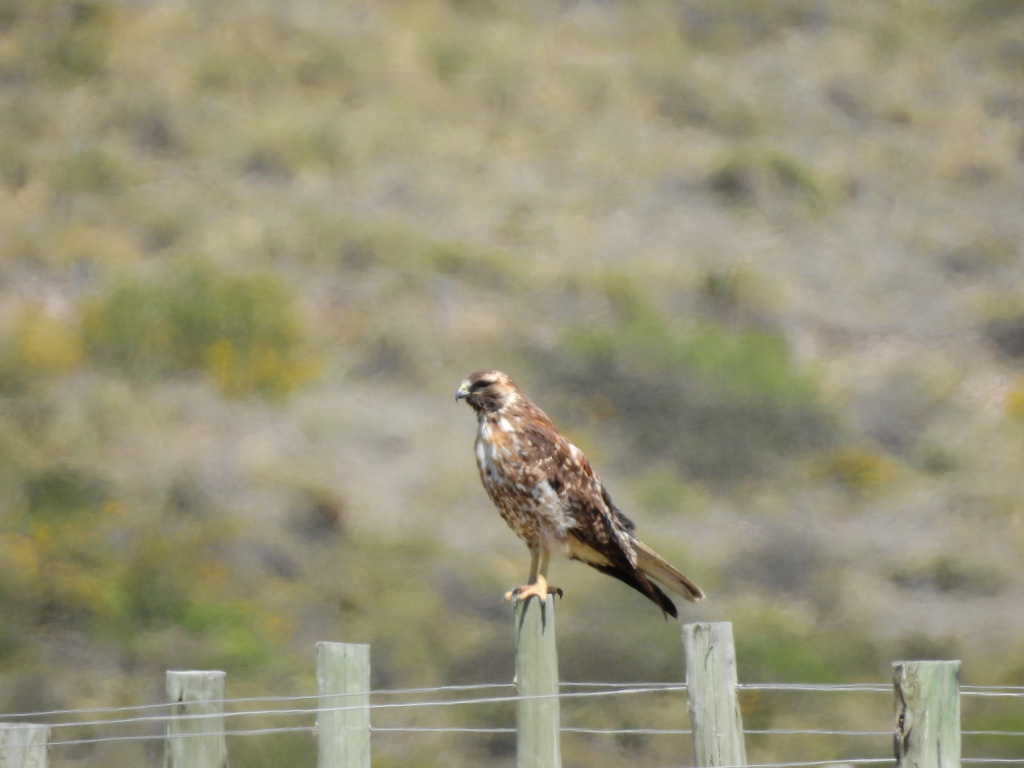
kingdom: Animalia
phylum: Chordata
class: Aves
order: Accipitriformes
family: Accipitridae
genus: Buteo
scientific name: Buteo polyosoma
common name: Variable hawk
